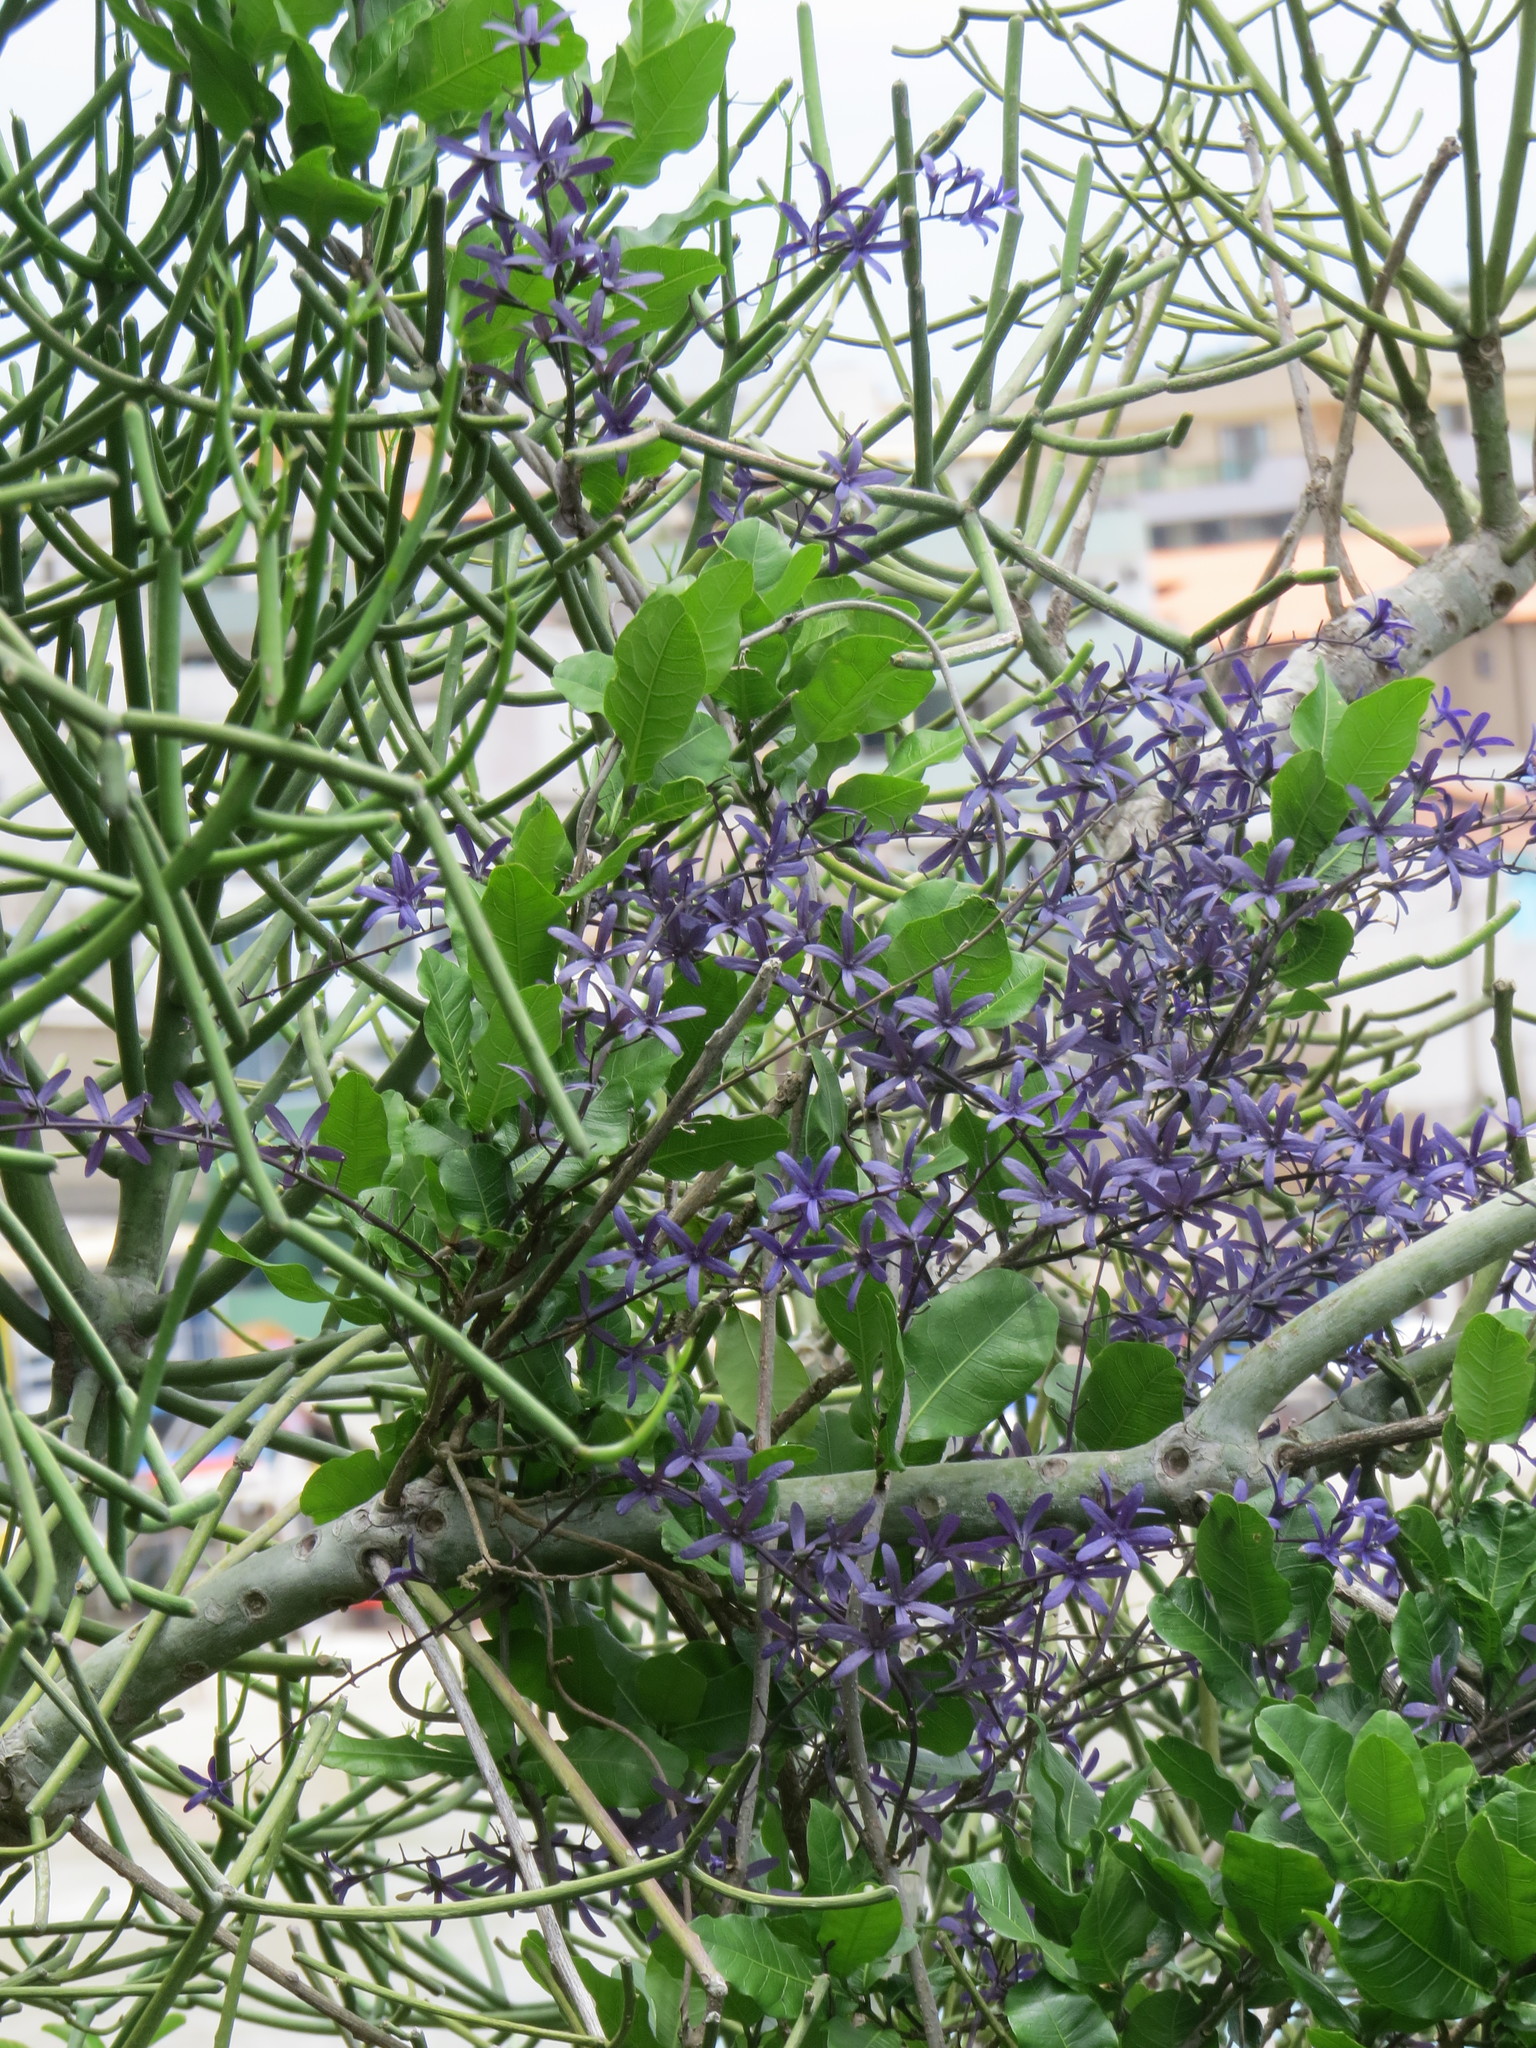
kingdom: Plantae
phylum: Tracheophyta
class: Magnoliopsida
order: Lamiales
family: Verbenaceae
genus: Petrea
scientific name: Petrea volubilis
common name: Queen's-wreath
